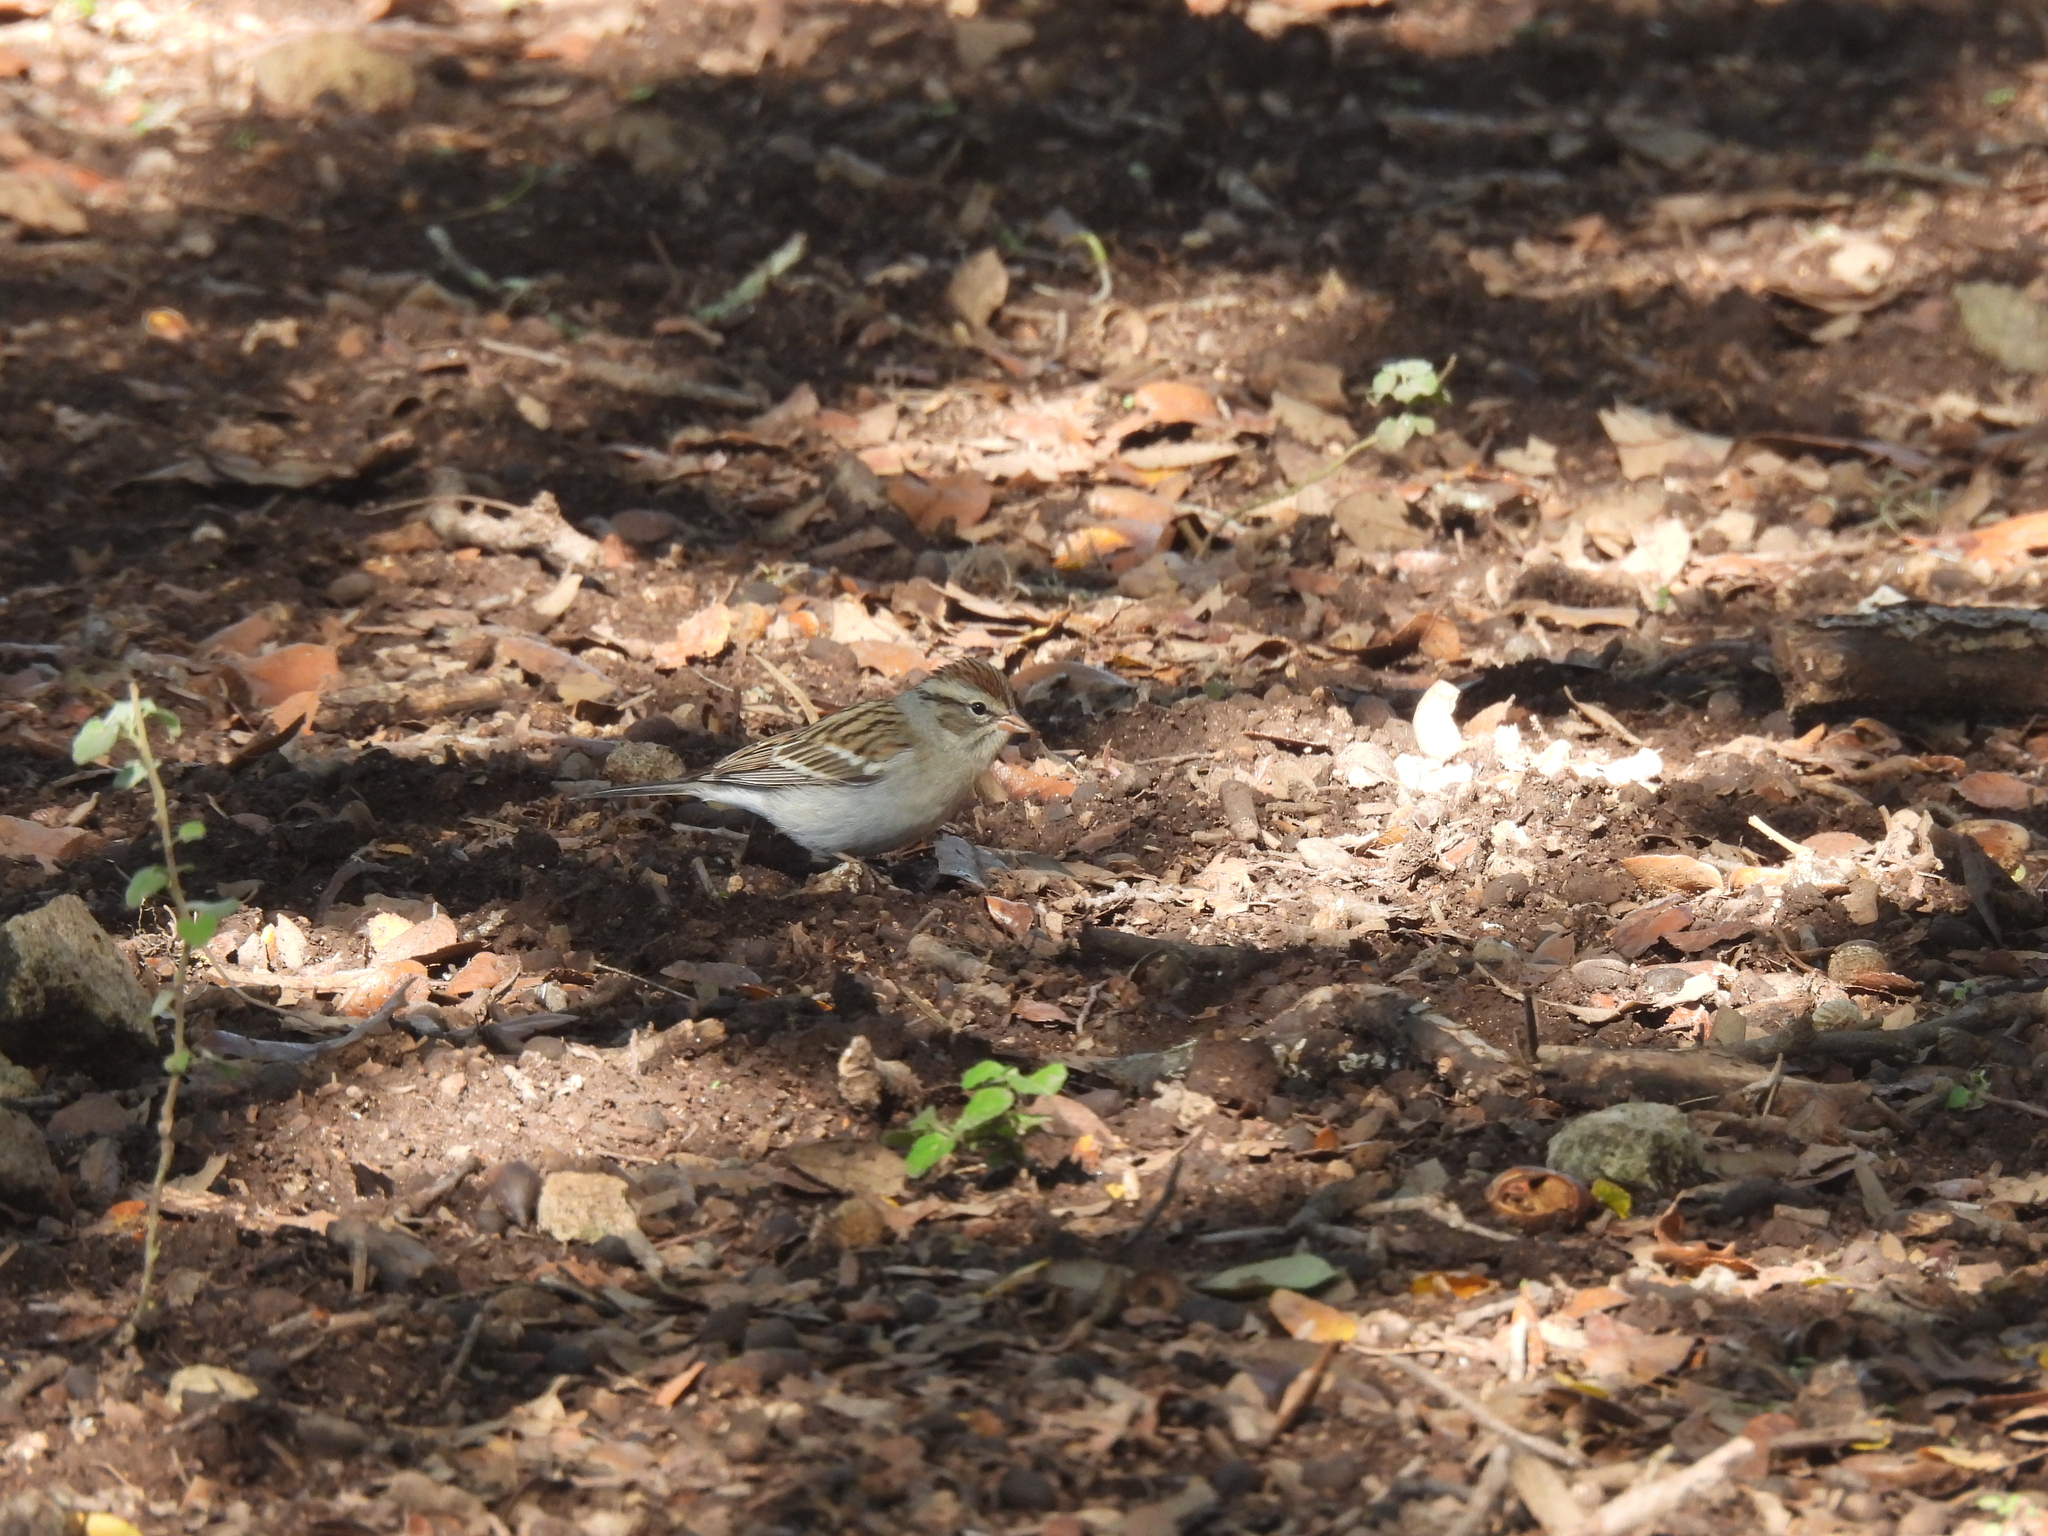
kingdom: Animalia
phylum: Chordata
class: Aves
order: Passeriformes
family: Passerellidae
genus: Spizella
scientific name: Spizella passerina
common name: Chipping sparrow
